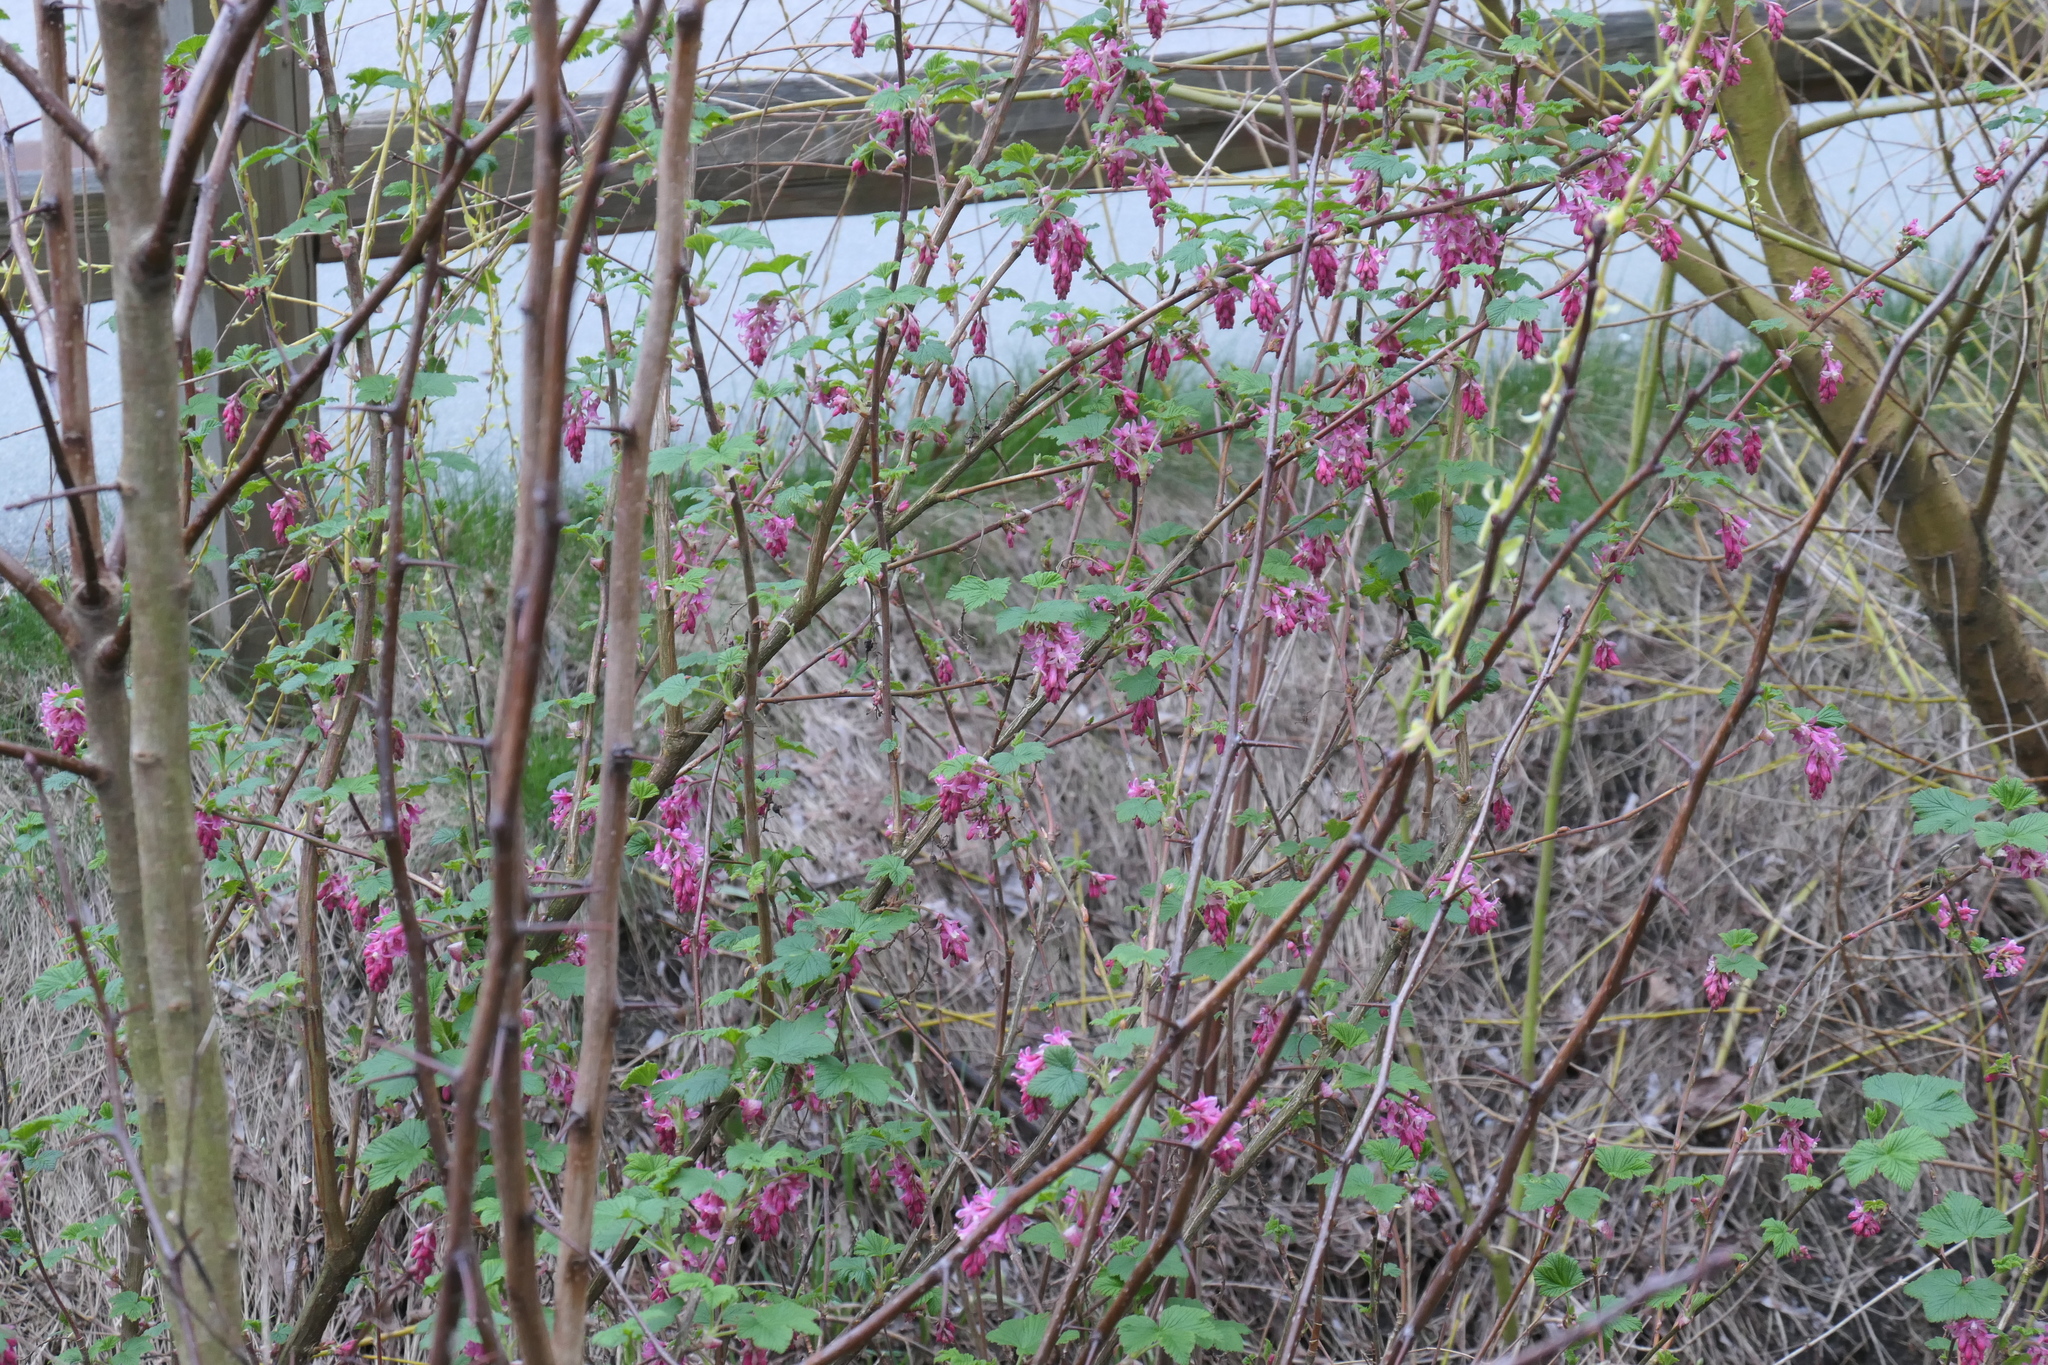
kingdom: Plantae
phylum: Tracheophyta
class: Magnoliopsida
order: Saxifragales
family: Grossulariaceae
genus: Ribes
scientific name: Ribes sanguineum
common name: Flowering currant
